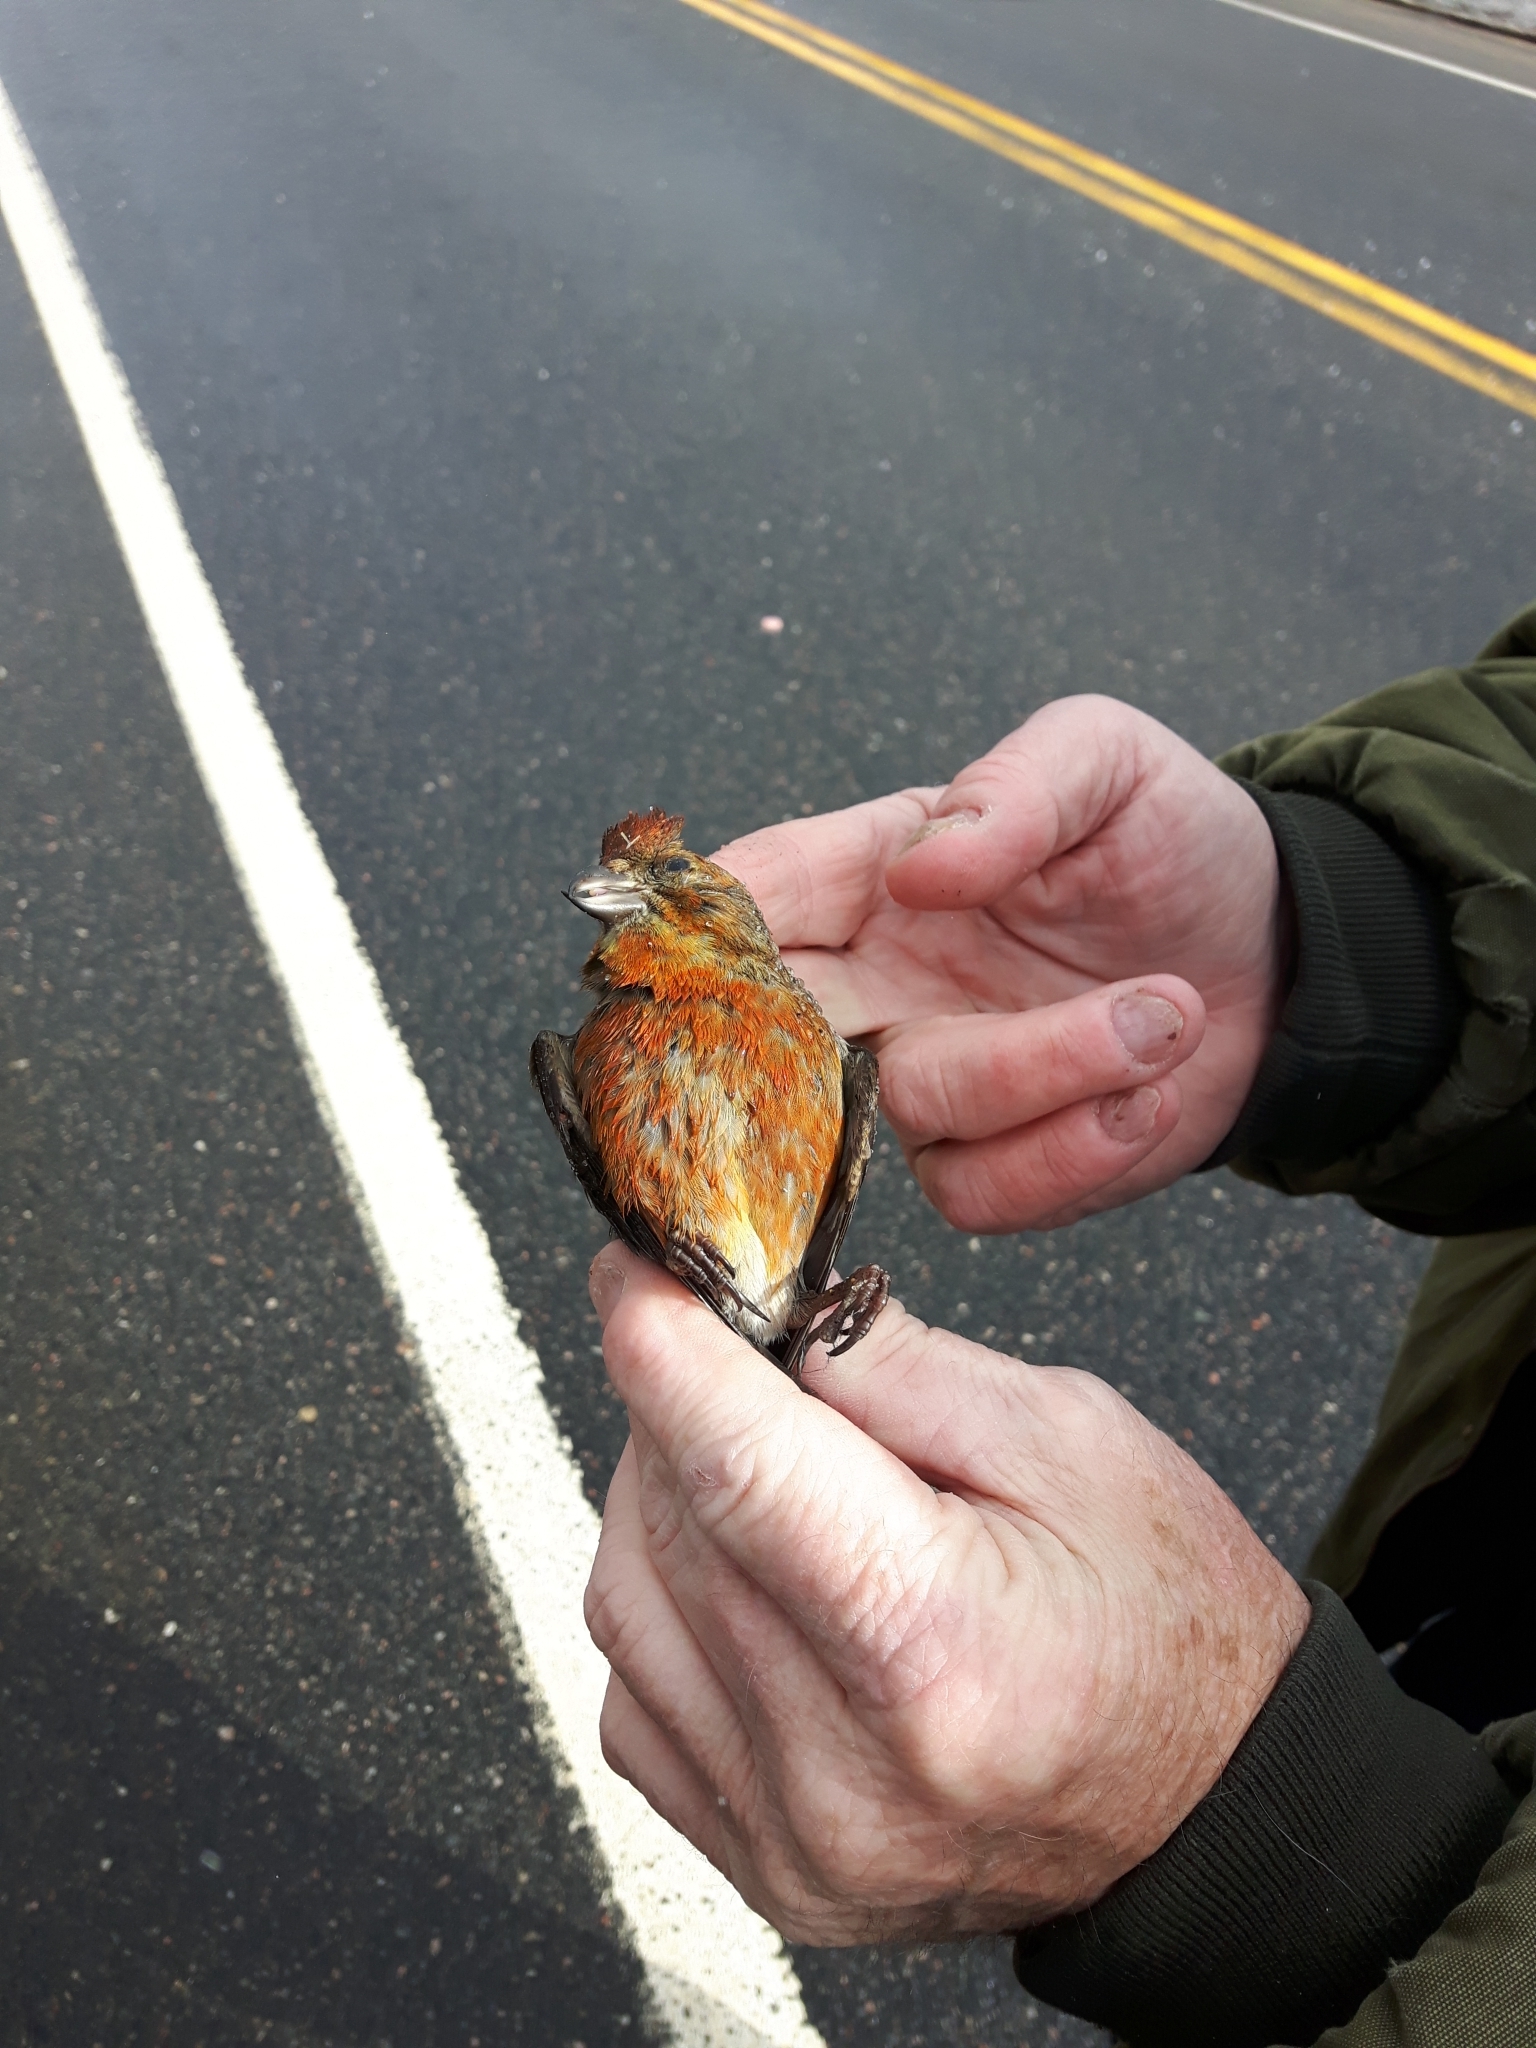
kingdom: Animalia
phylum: Chordata
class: Aves
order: Passeriformes
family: Fringillidae
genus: Loxia
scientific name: Loxia curvirostra
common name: Red crossbill
